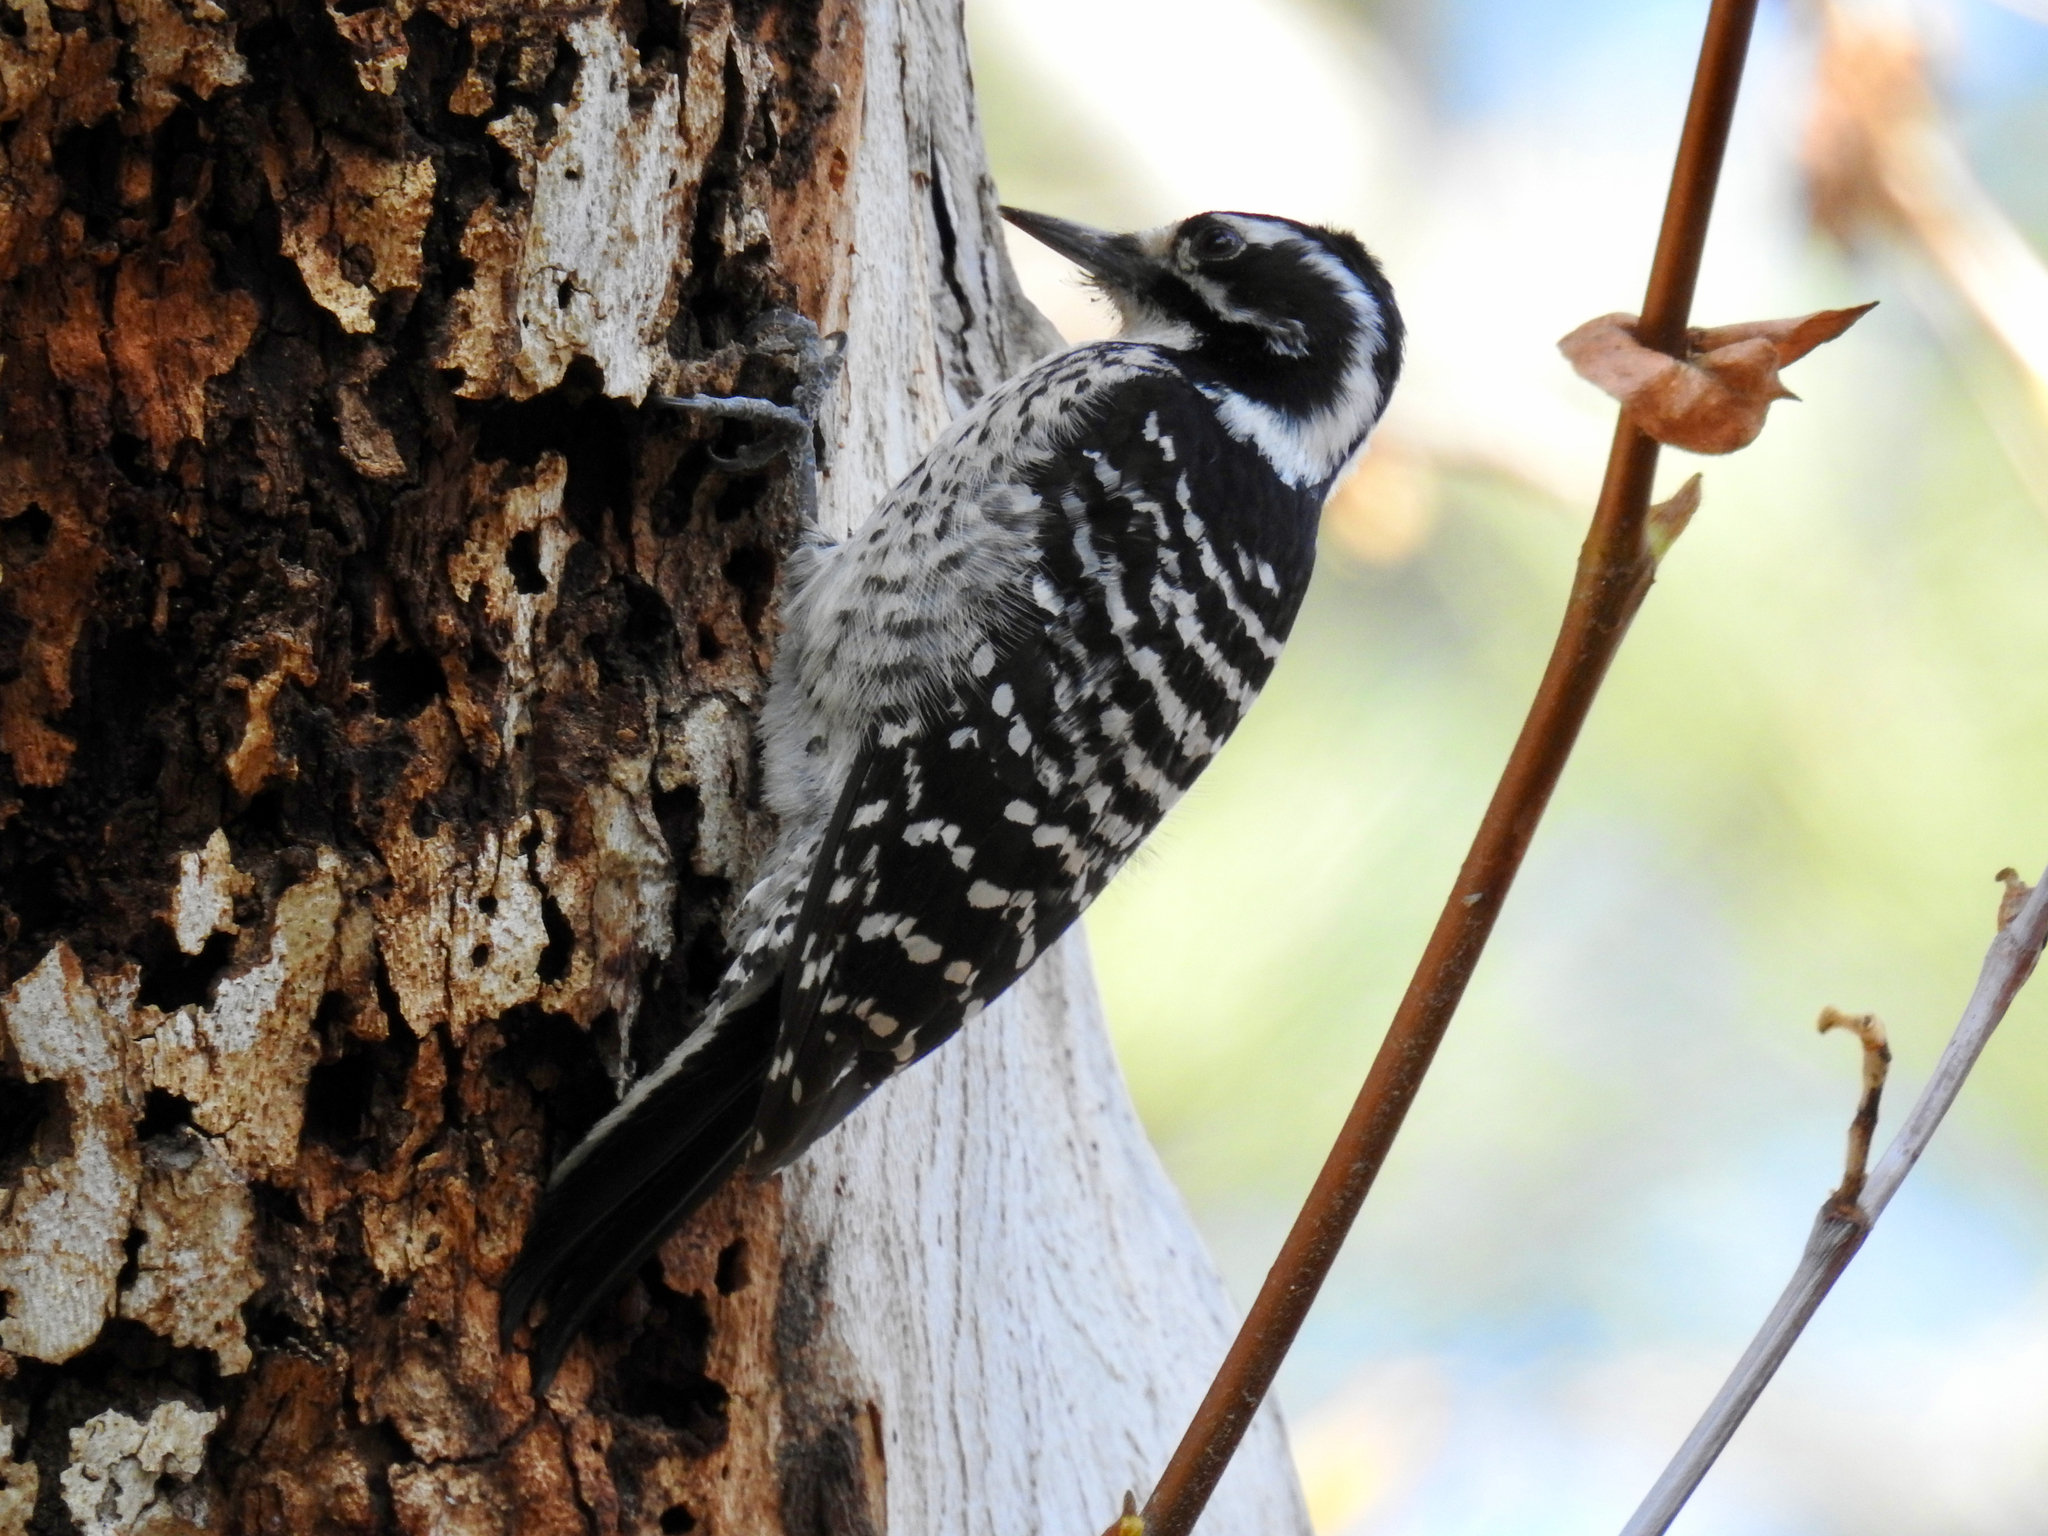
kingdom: Animalia
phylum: Chordata
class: Aves
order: Piciformes
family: Picidae
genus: Dryobates
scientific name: Dryobates nuttallii
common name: Nuttall's woodpecker
